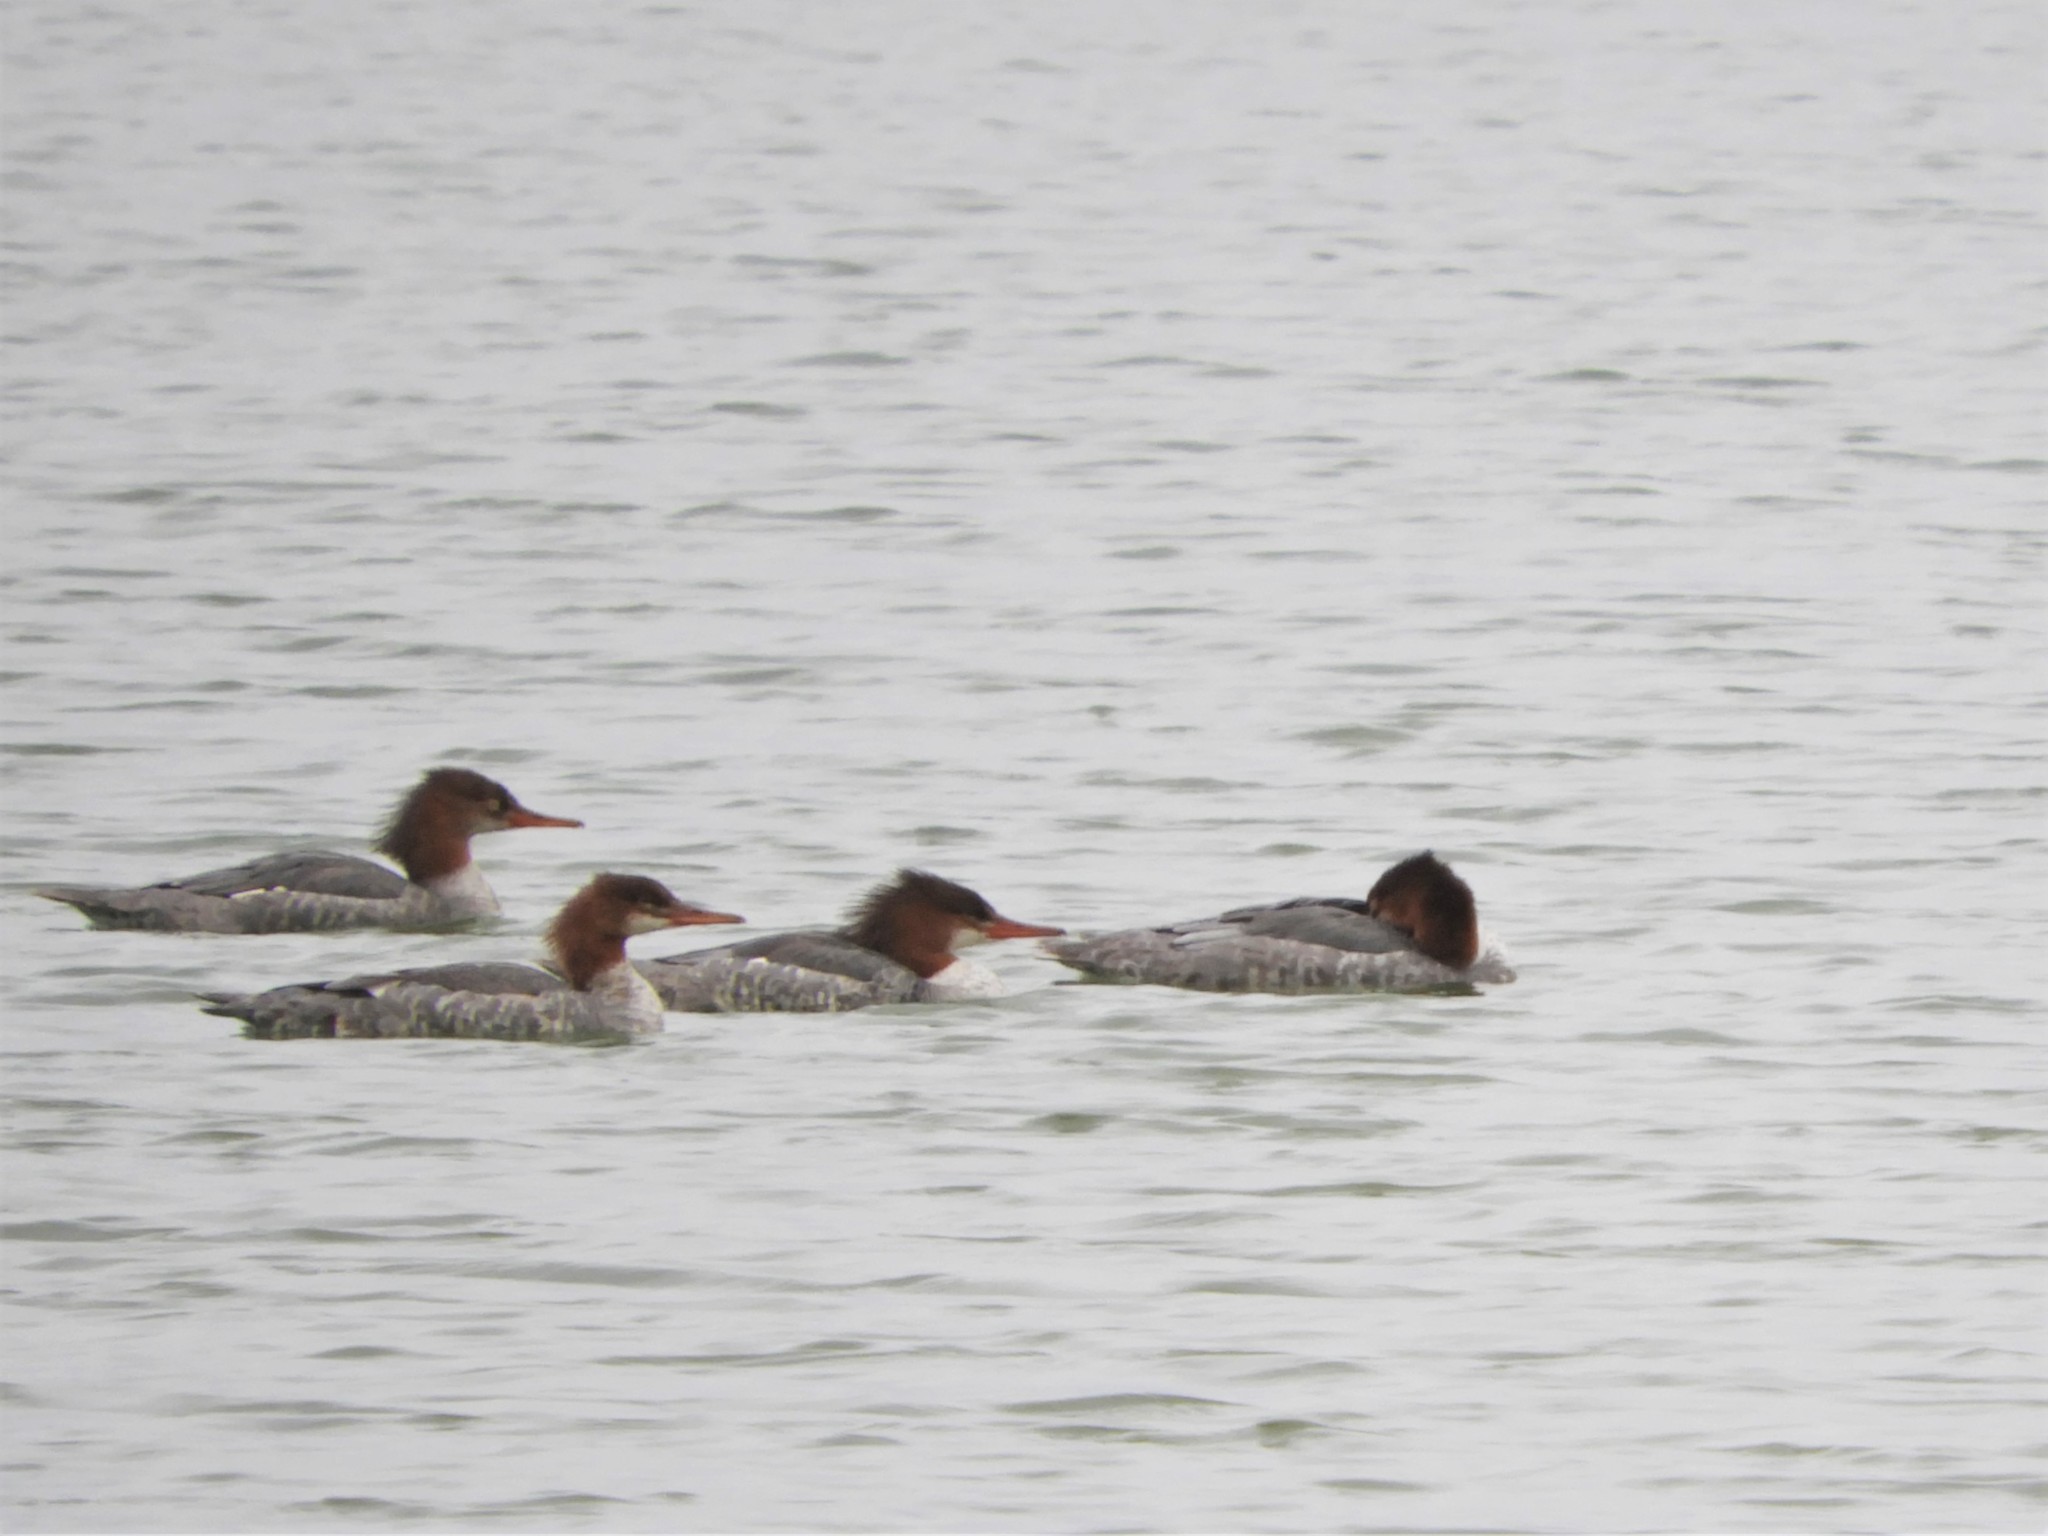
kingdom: Animalia
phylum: Chordata
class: Aves
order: Anseriformes
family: Anatidae
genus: Mergus
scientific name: Mergus merganser
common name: Common merganser
